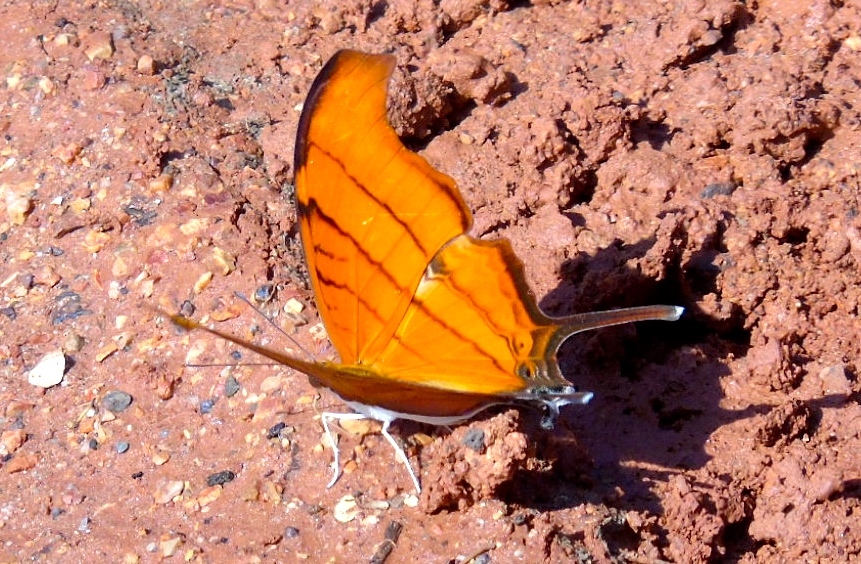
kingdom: Animalia
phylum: Arthropoda
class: Insecta
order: Lepidoptera
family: Nymphalidae
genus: Marpesia
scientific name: Marpesia petreus
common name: Red dagger wing
